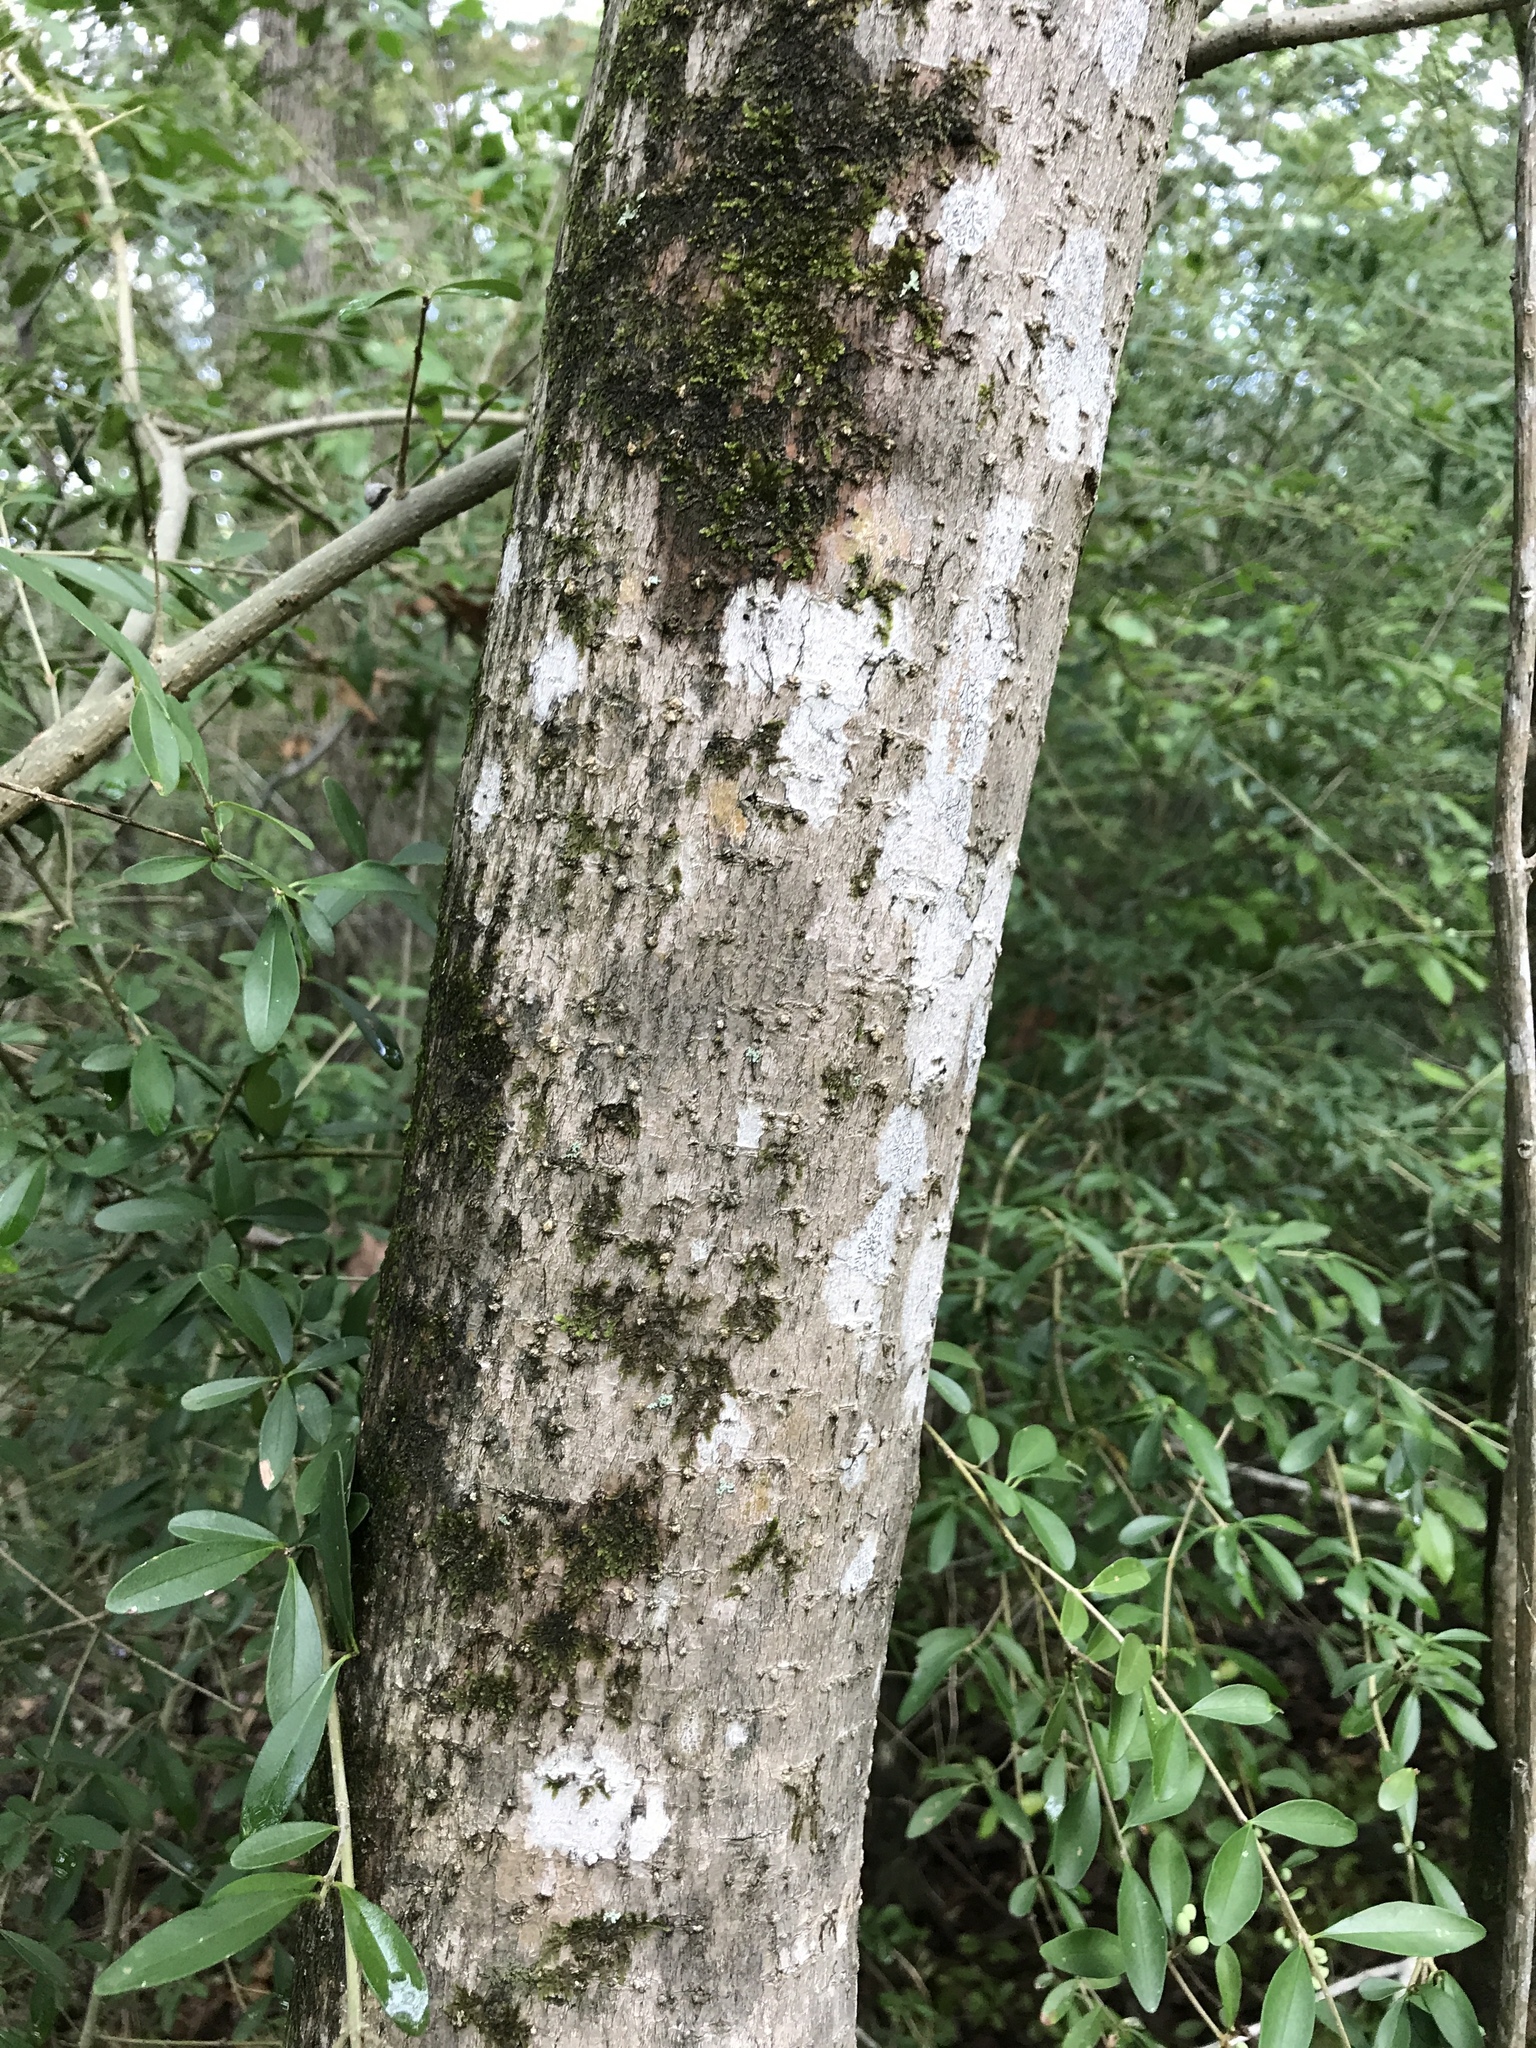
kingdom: Plantae
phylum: Tracheophyta
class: Magnoliopsida
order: Lamiales
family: Oleaceae
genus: Ligustrum
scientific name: Ligustrum lucidum
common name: Glossy privet
